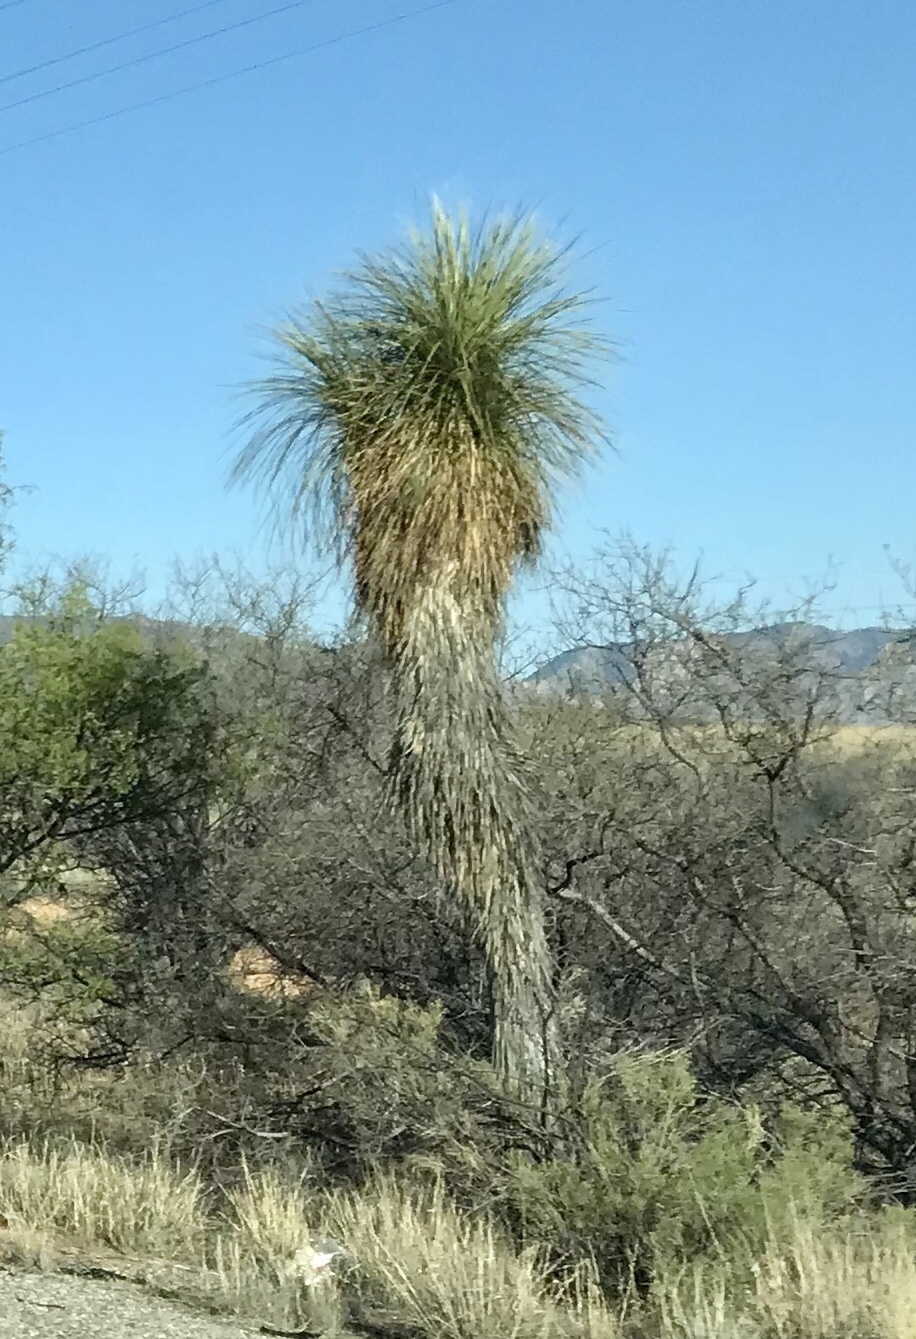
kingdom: Plantae
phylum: Tracheophyta
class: Liliopsida
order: Asparagales
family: Asparagaceae
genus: Yucca
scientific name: Yucca elata
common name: Palmella
